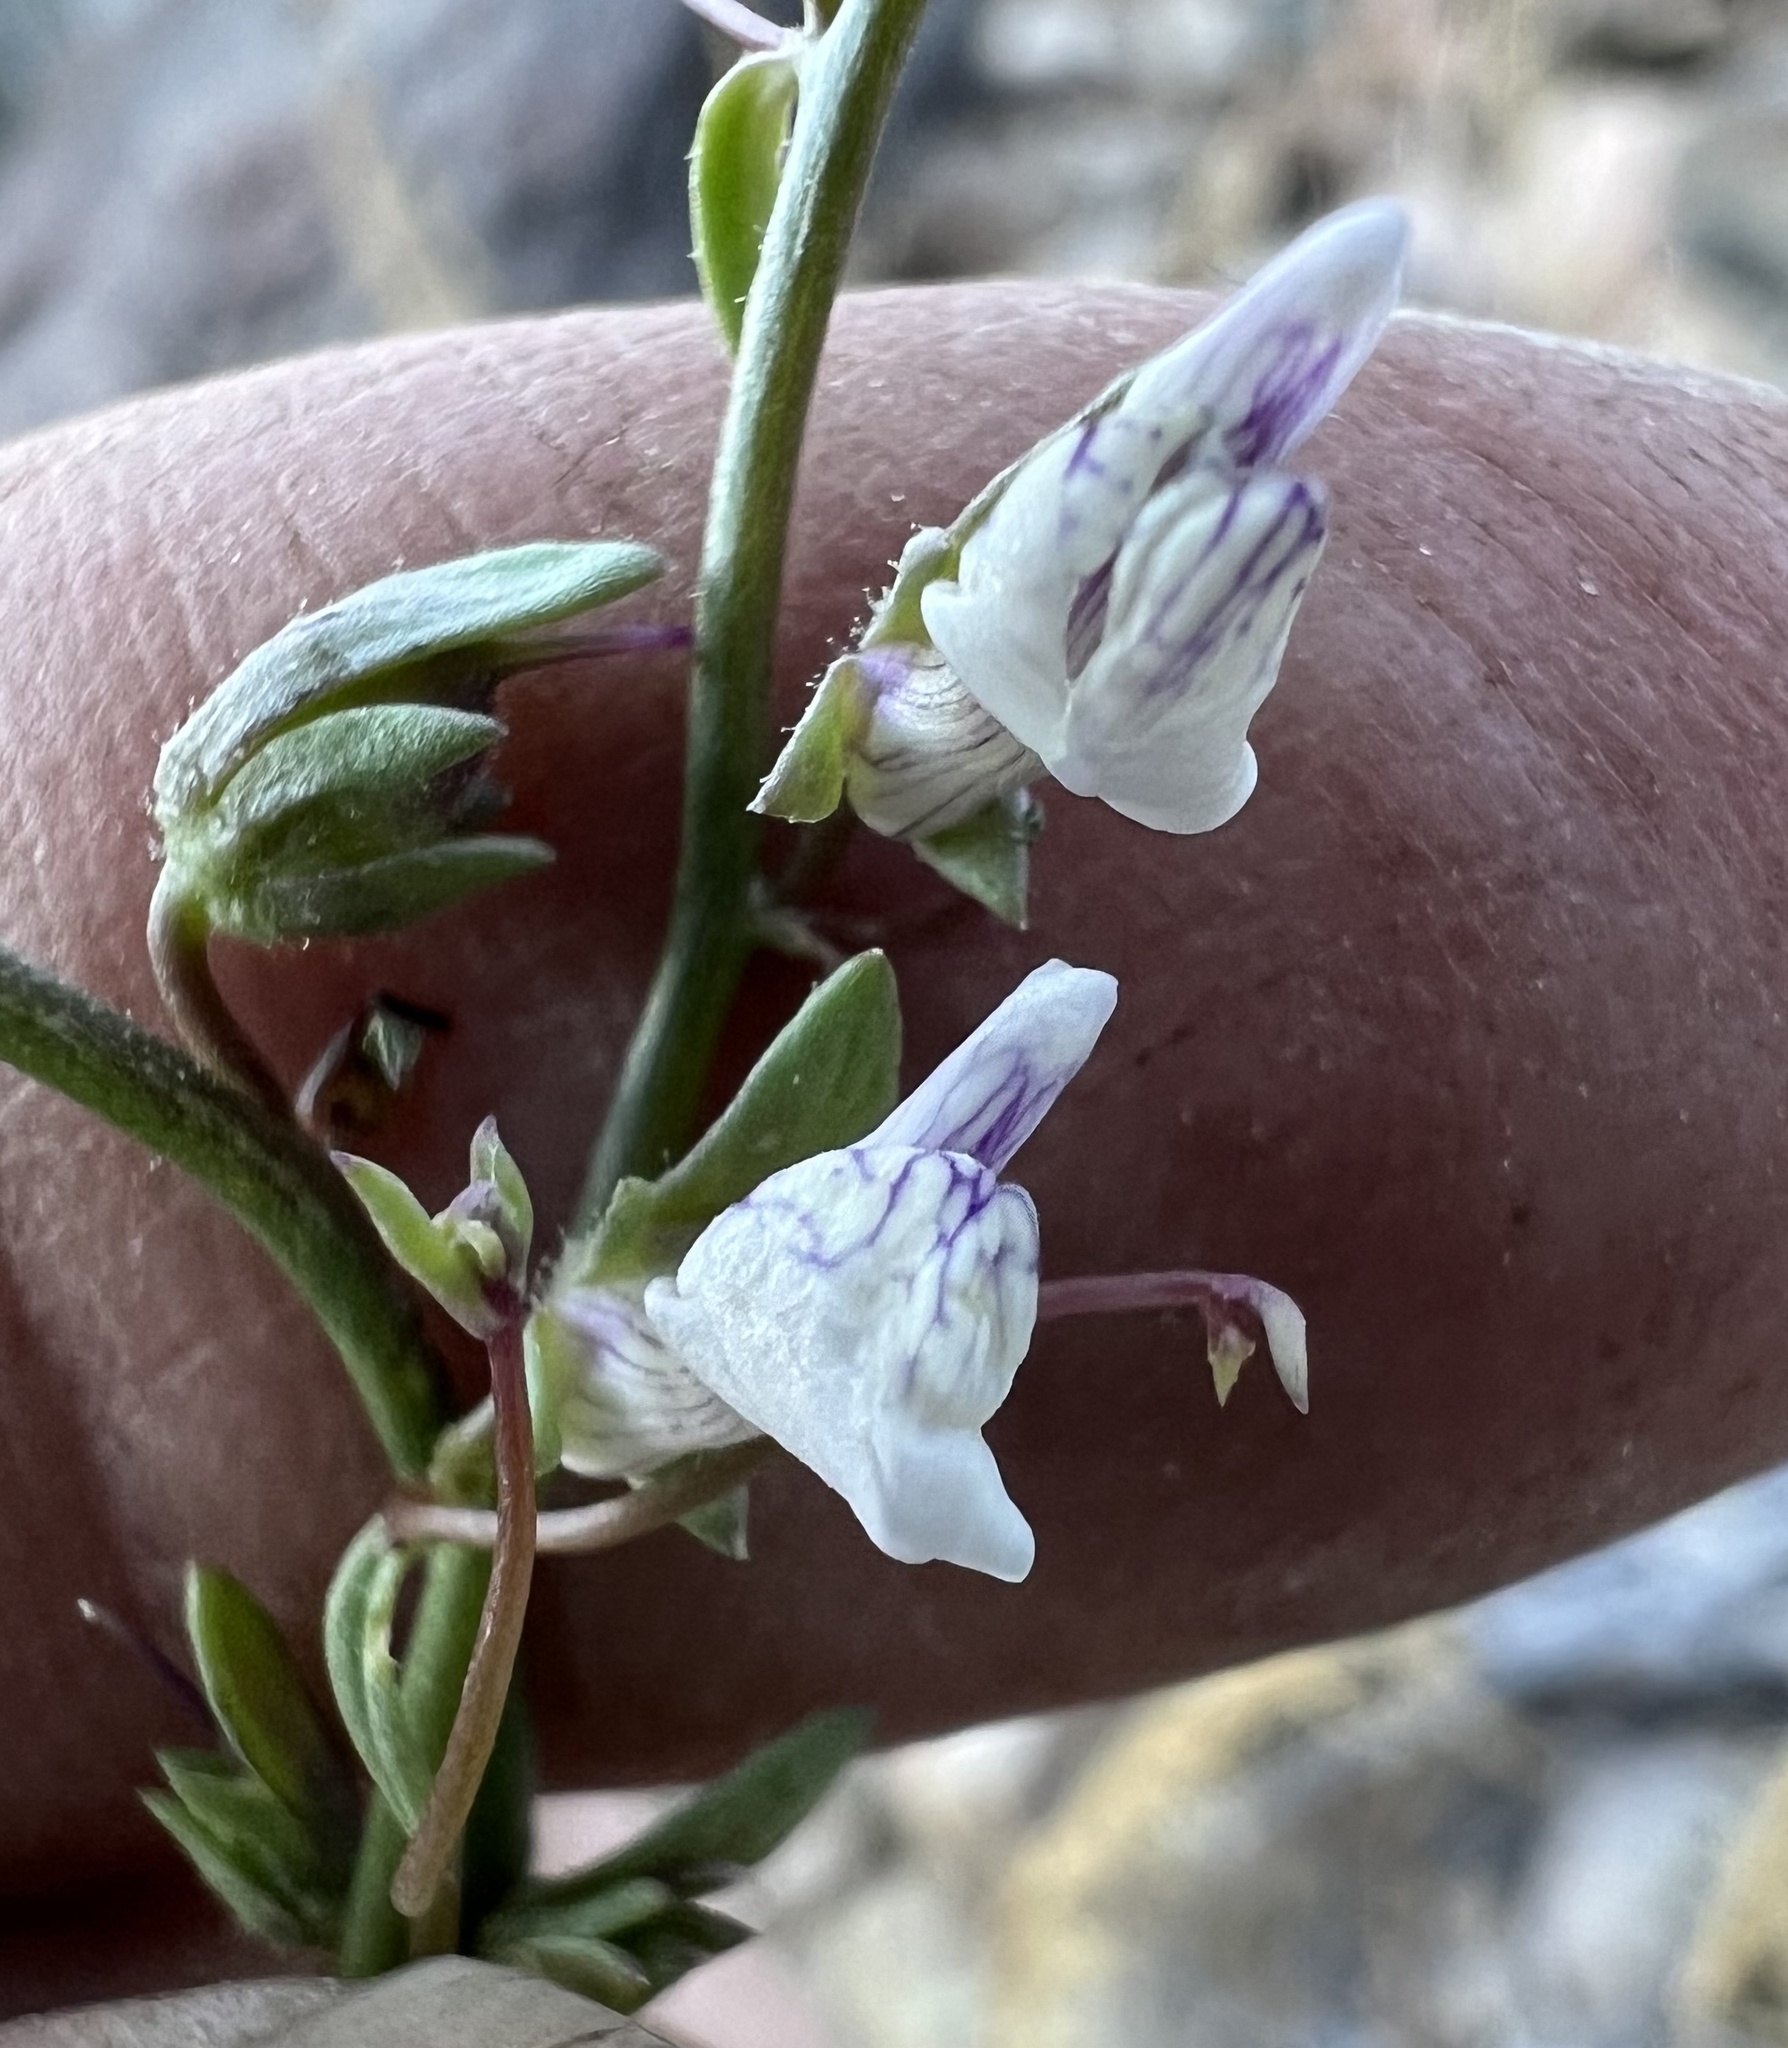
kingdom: Plantae
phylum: Tracheophyta
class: Magnoliopsida
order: Lamiales
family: Plantaginaceae
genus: Sairocarpus
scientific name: Sairocarpus kingii
